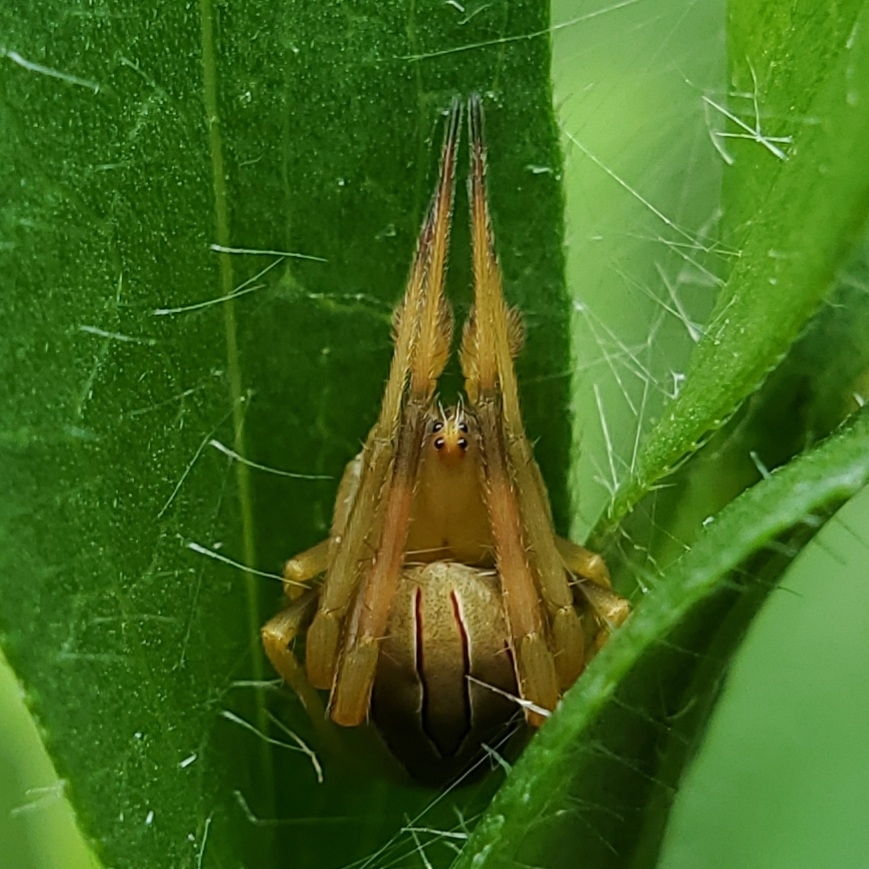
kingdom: Animalia
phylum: Arthropoda
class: Arachnida
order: Araneae
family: Araneidae
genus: Acacesia
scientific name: Acacesia hamata
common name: Orb weavers
